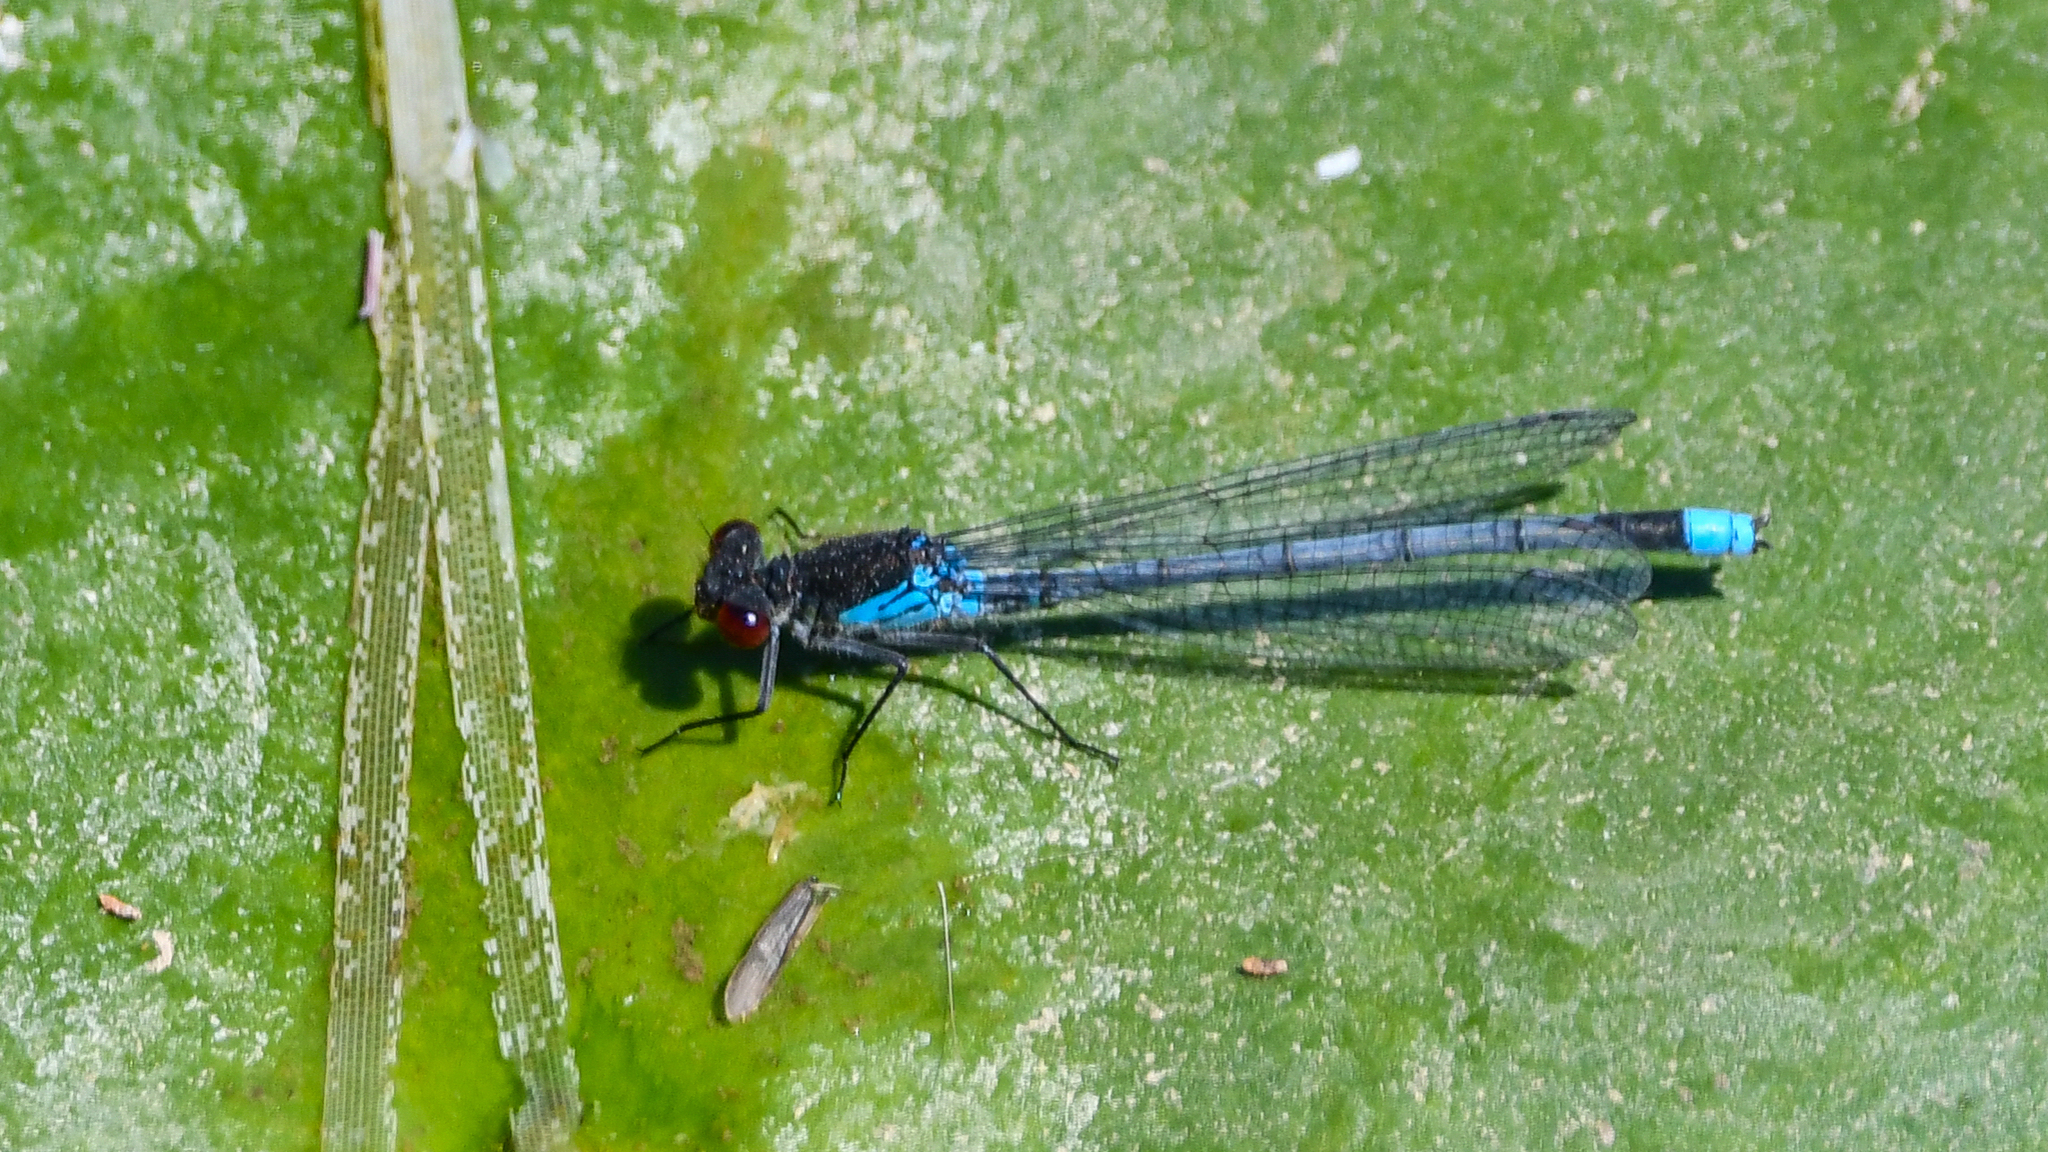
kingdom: Animalia
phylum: Arthropoda
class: Insecta
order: Odonata
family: Coenagrionidae
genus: Erythromma
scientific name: Erythromma najas
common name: Red-eyed damselfly
